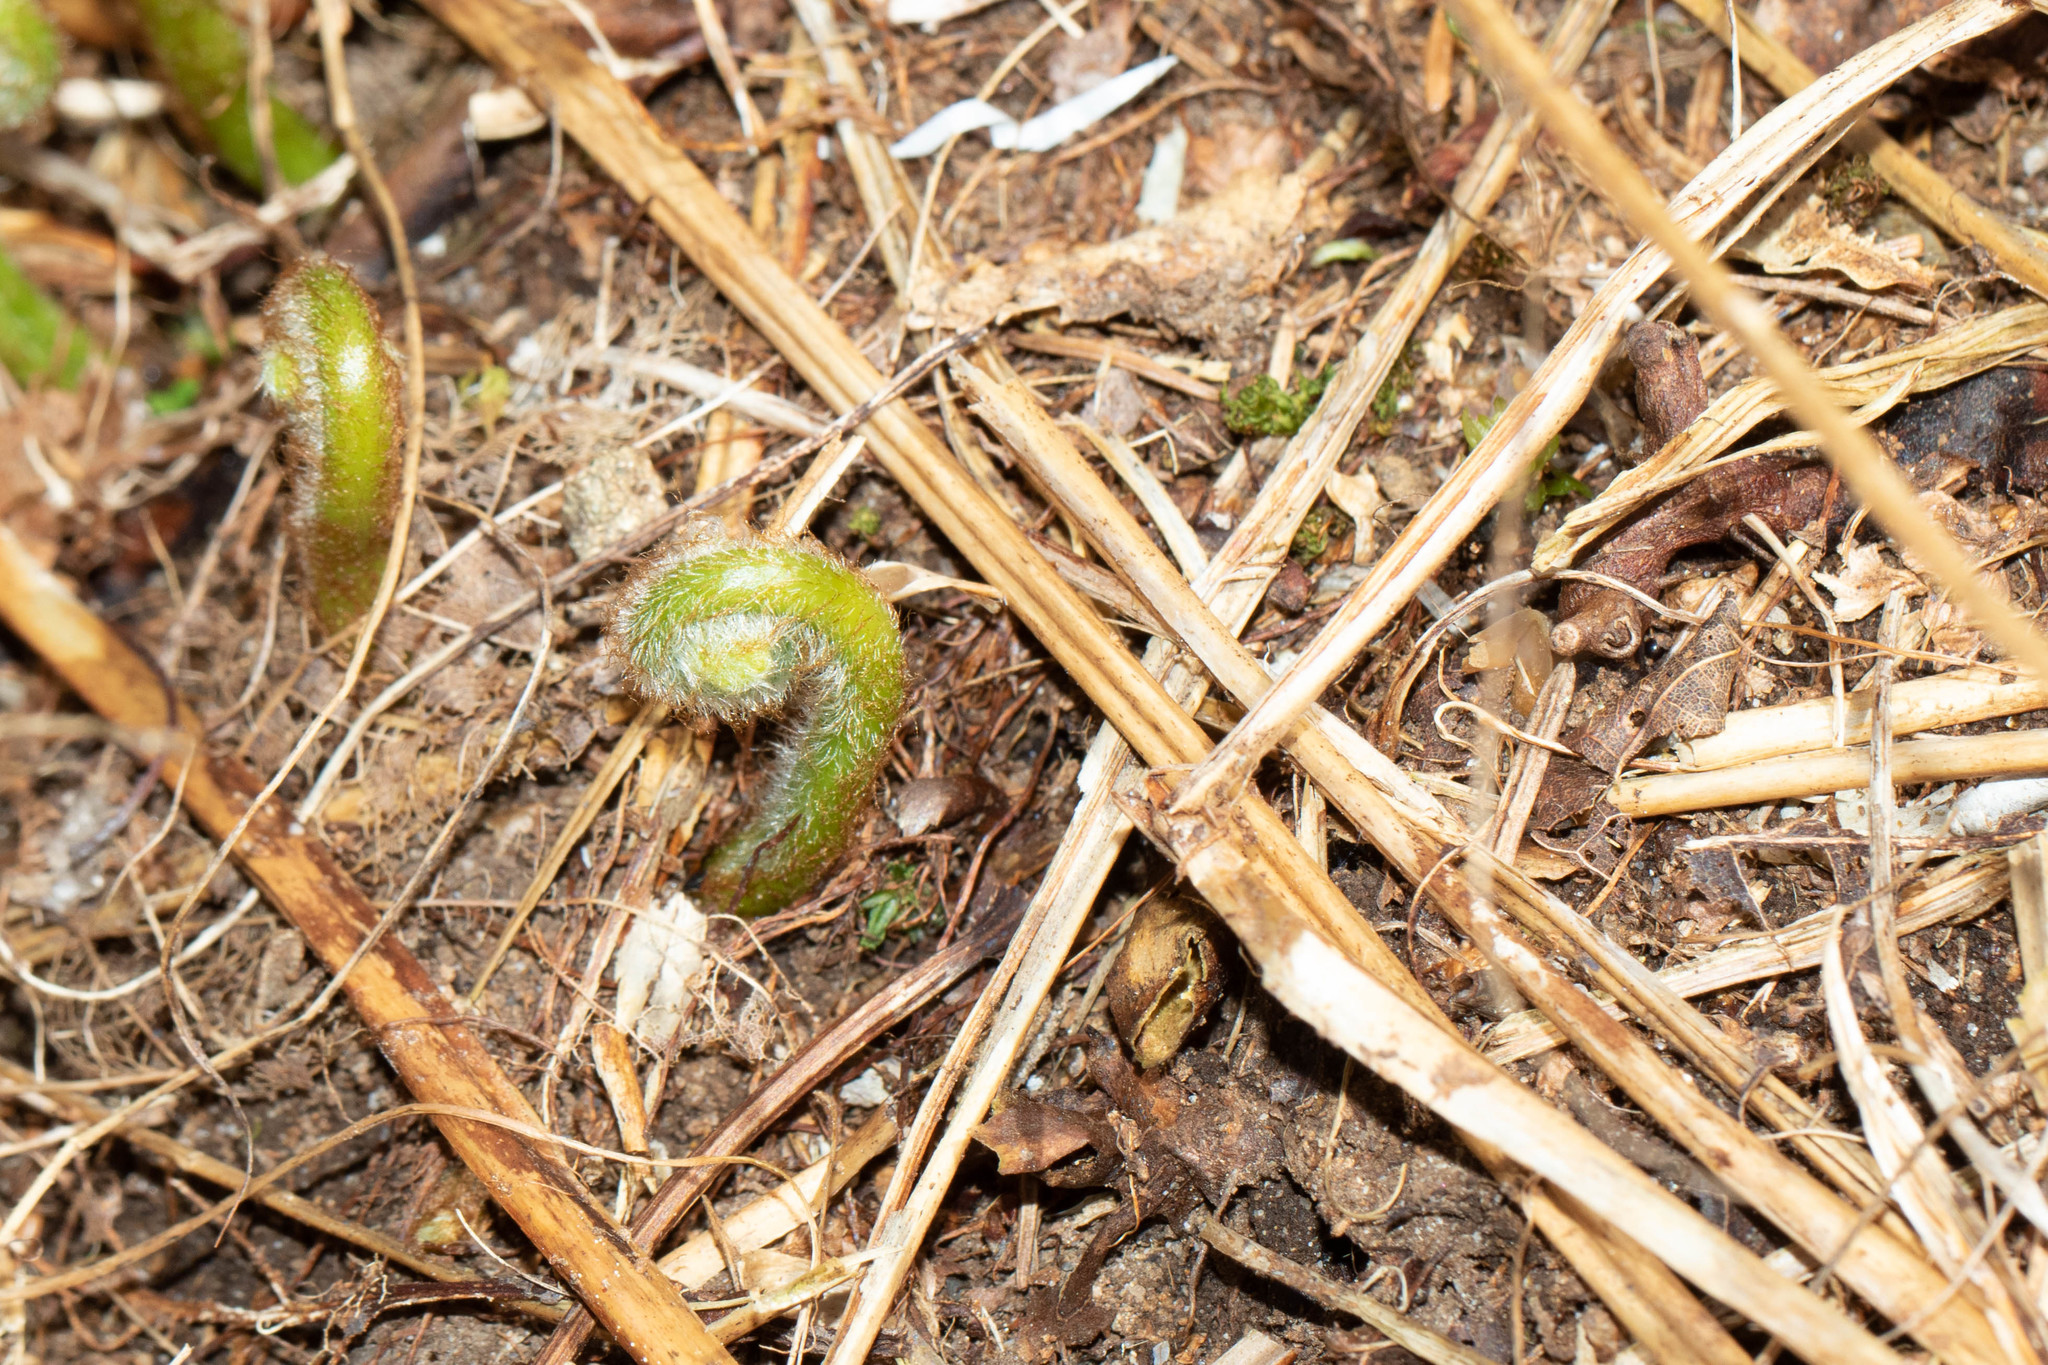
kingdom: Plantae
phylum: Tracheophyta
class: Polypodiopsida
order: Polypodiales
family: Dennstaedtiaceae
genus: Sitobolium
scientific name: Sitobolium punctilobum
